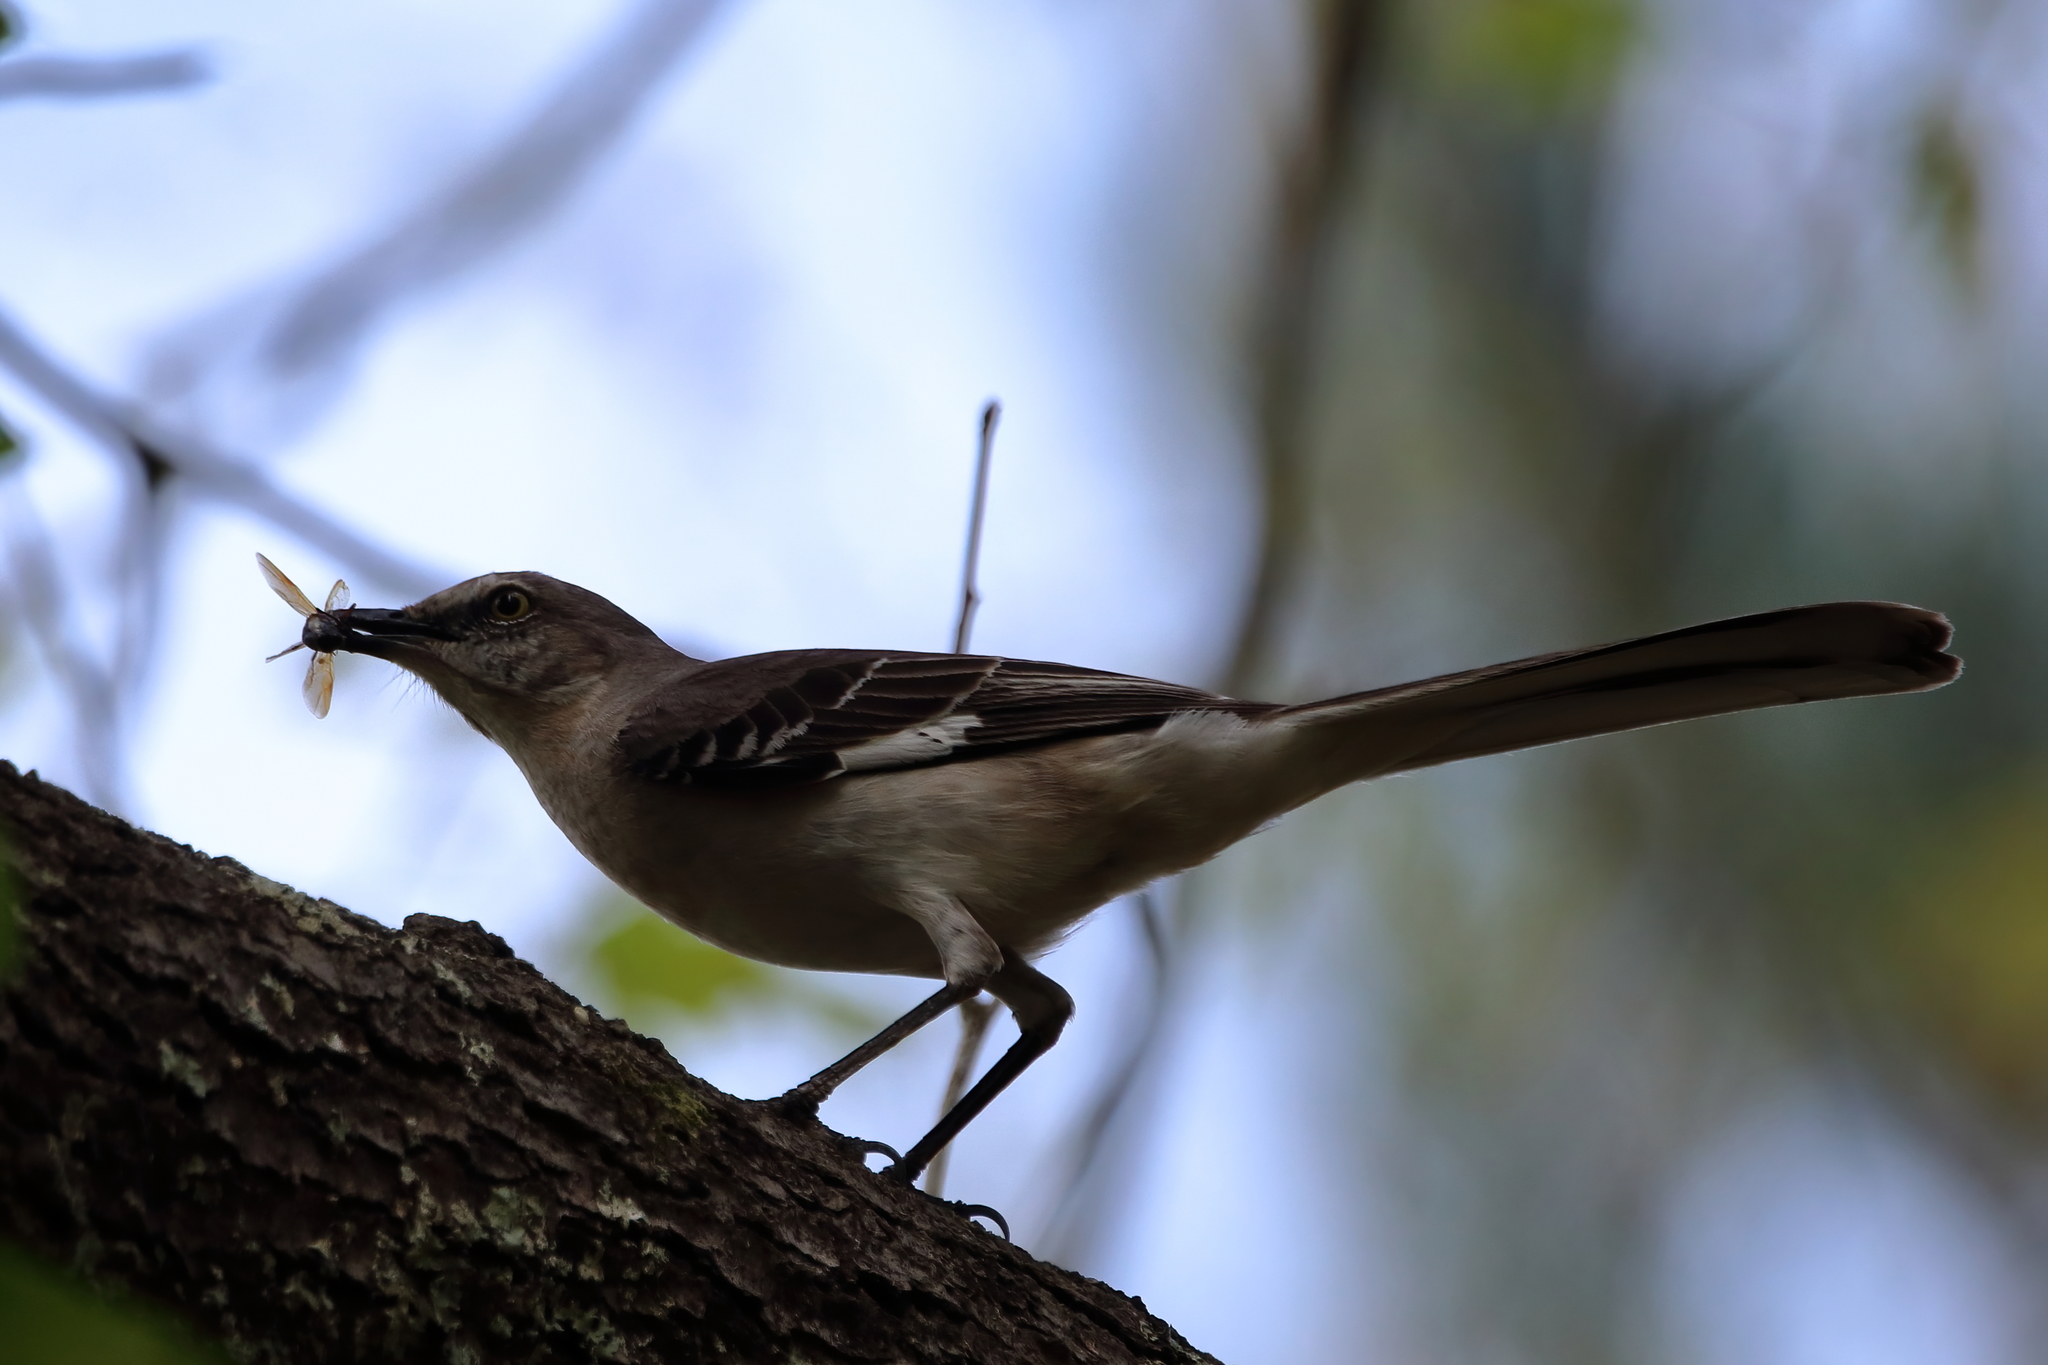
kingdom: Animalia
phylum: Chordata
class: Aves
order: Passeriformes
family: Mimidae
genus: Mimus
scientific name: Mimus polyglottos
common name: Northern mockingbird
